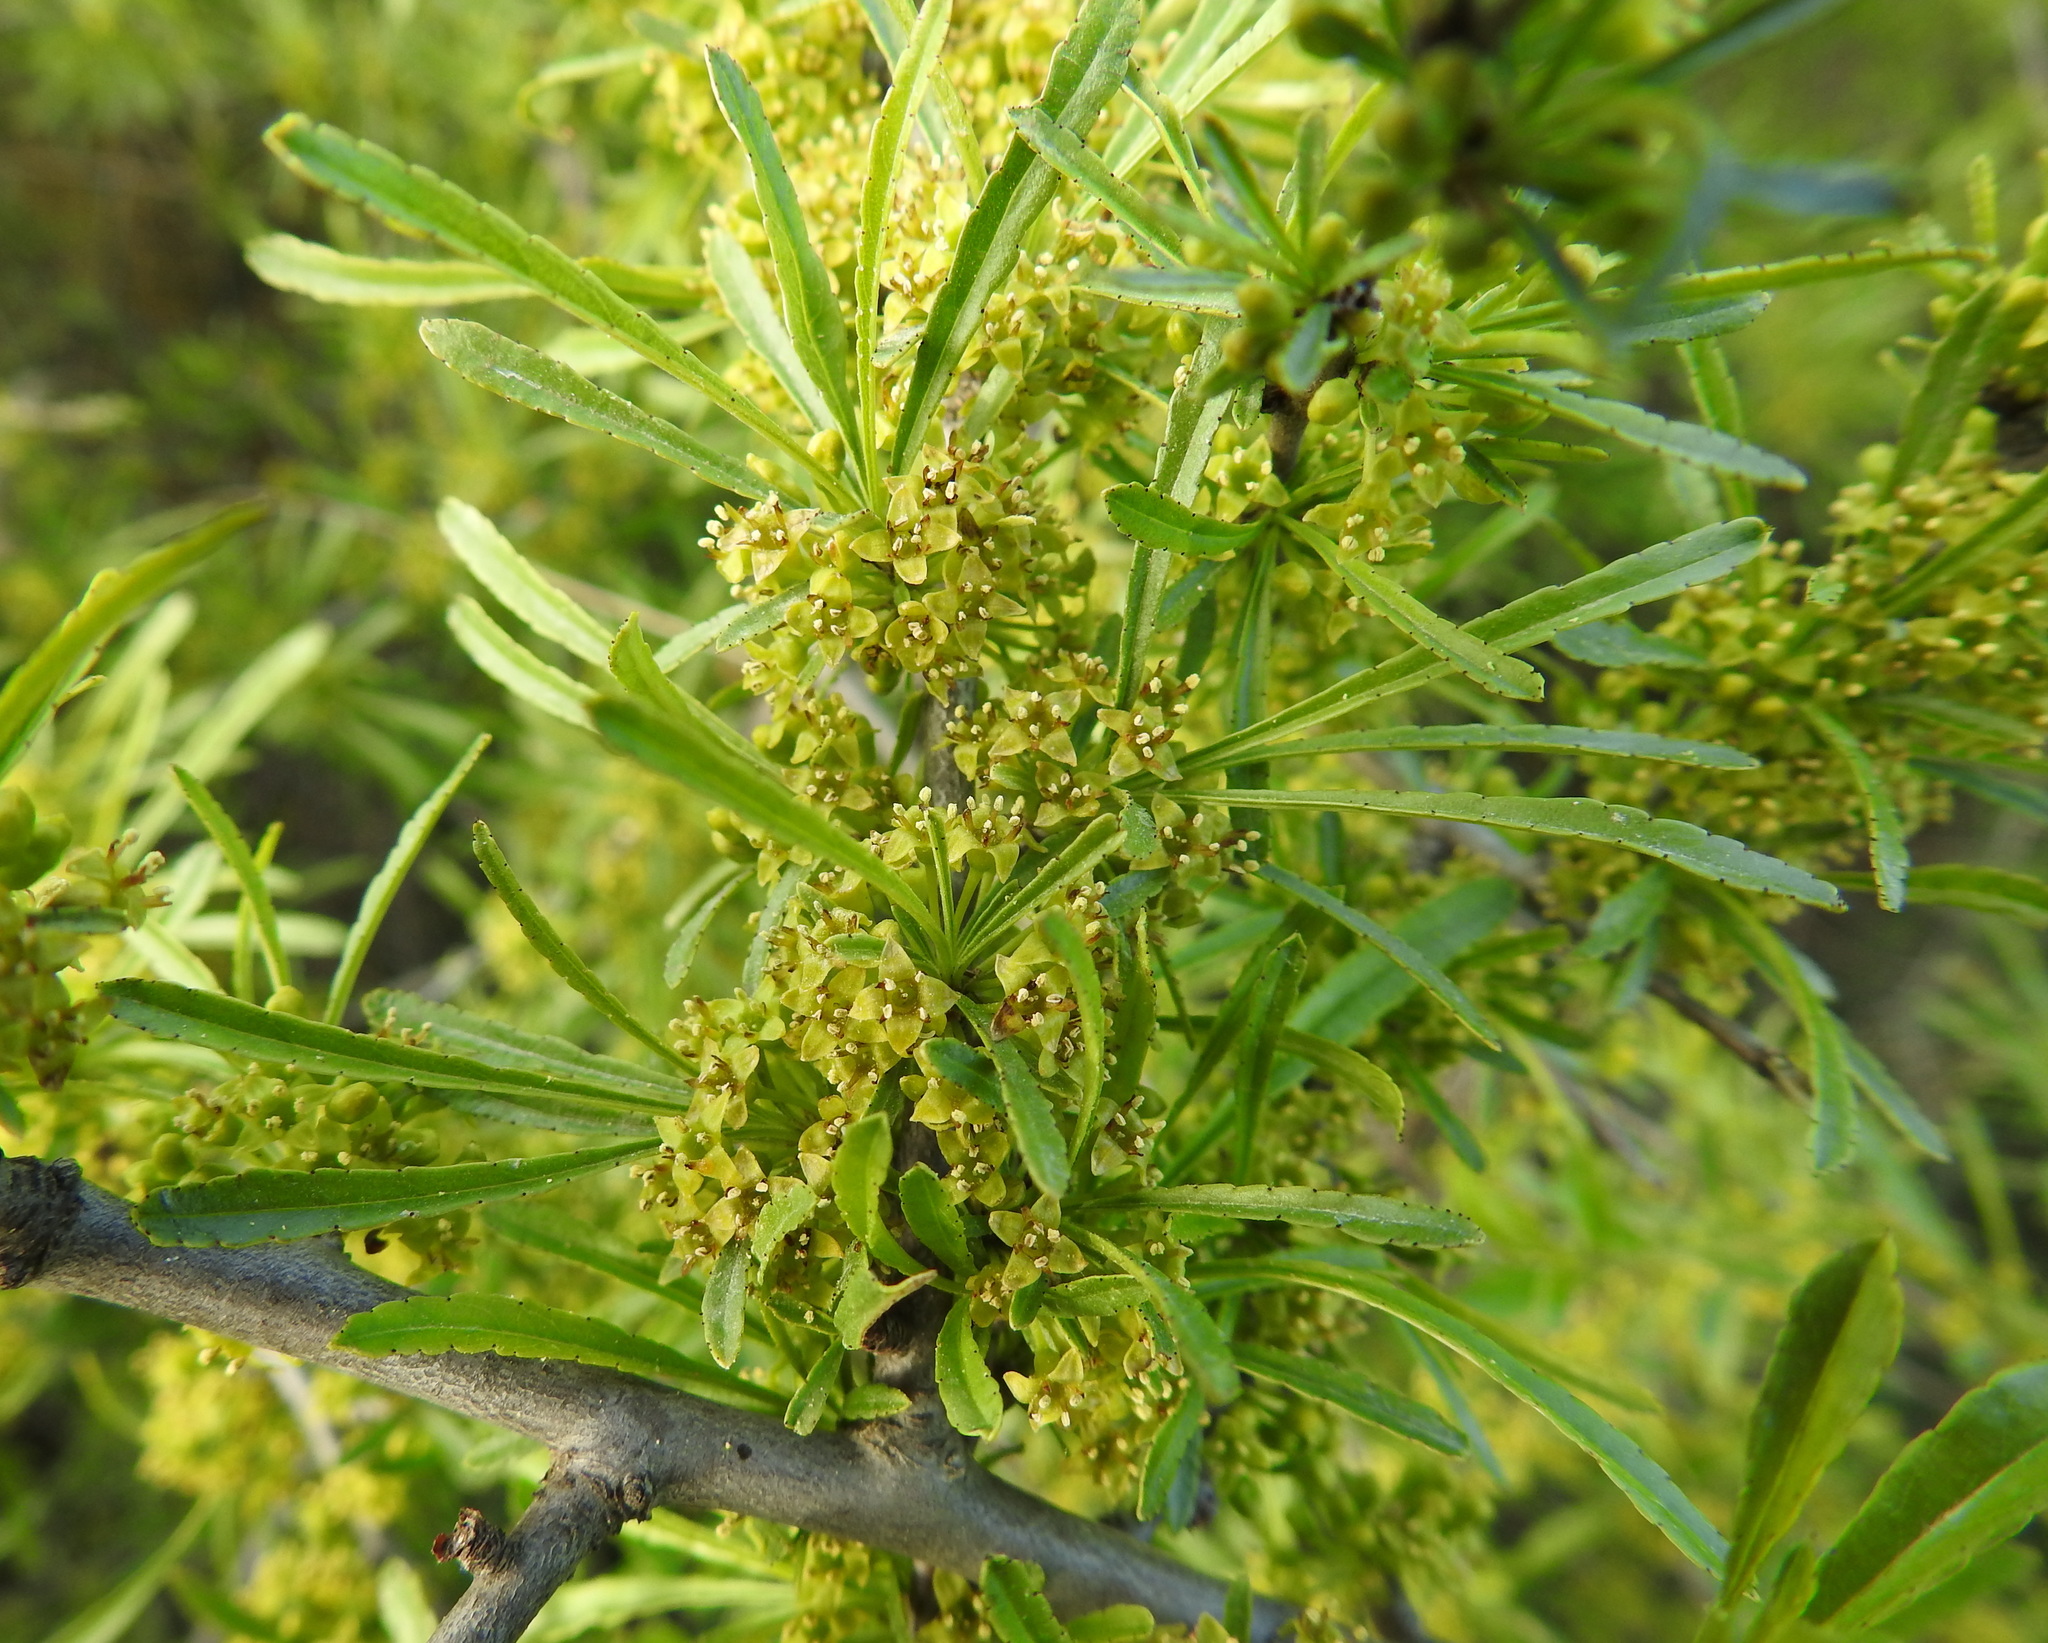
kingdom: Plantae
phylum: Tracheophyta
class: Magnoliopsida
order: Rosales
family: Rhamnaceae
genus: Rhamnus
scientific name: Rhamnus erythroxyloides
